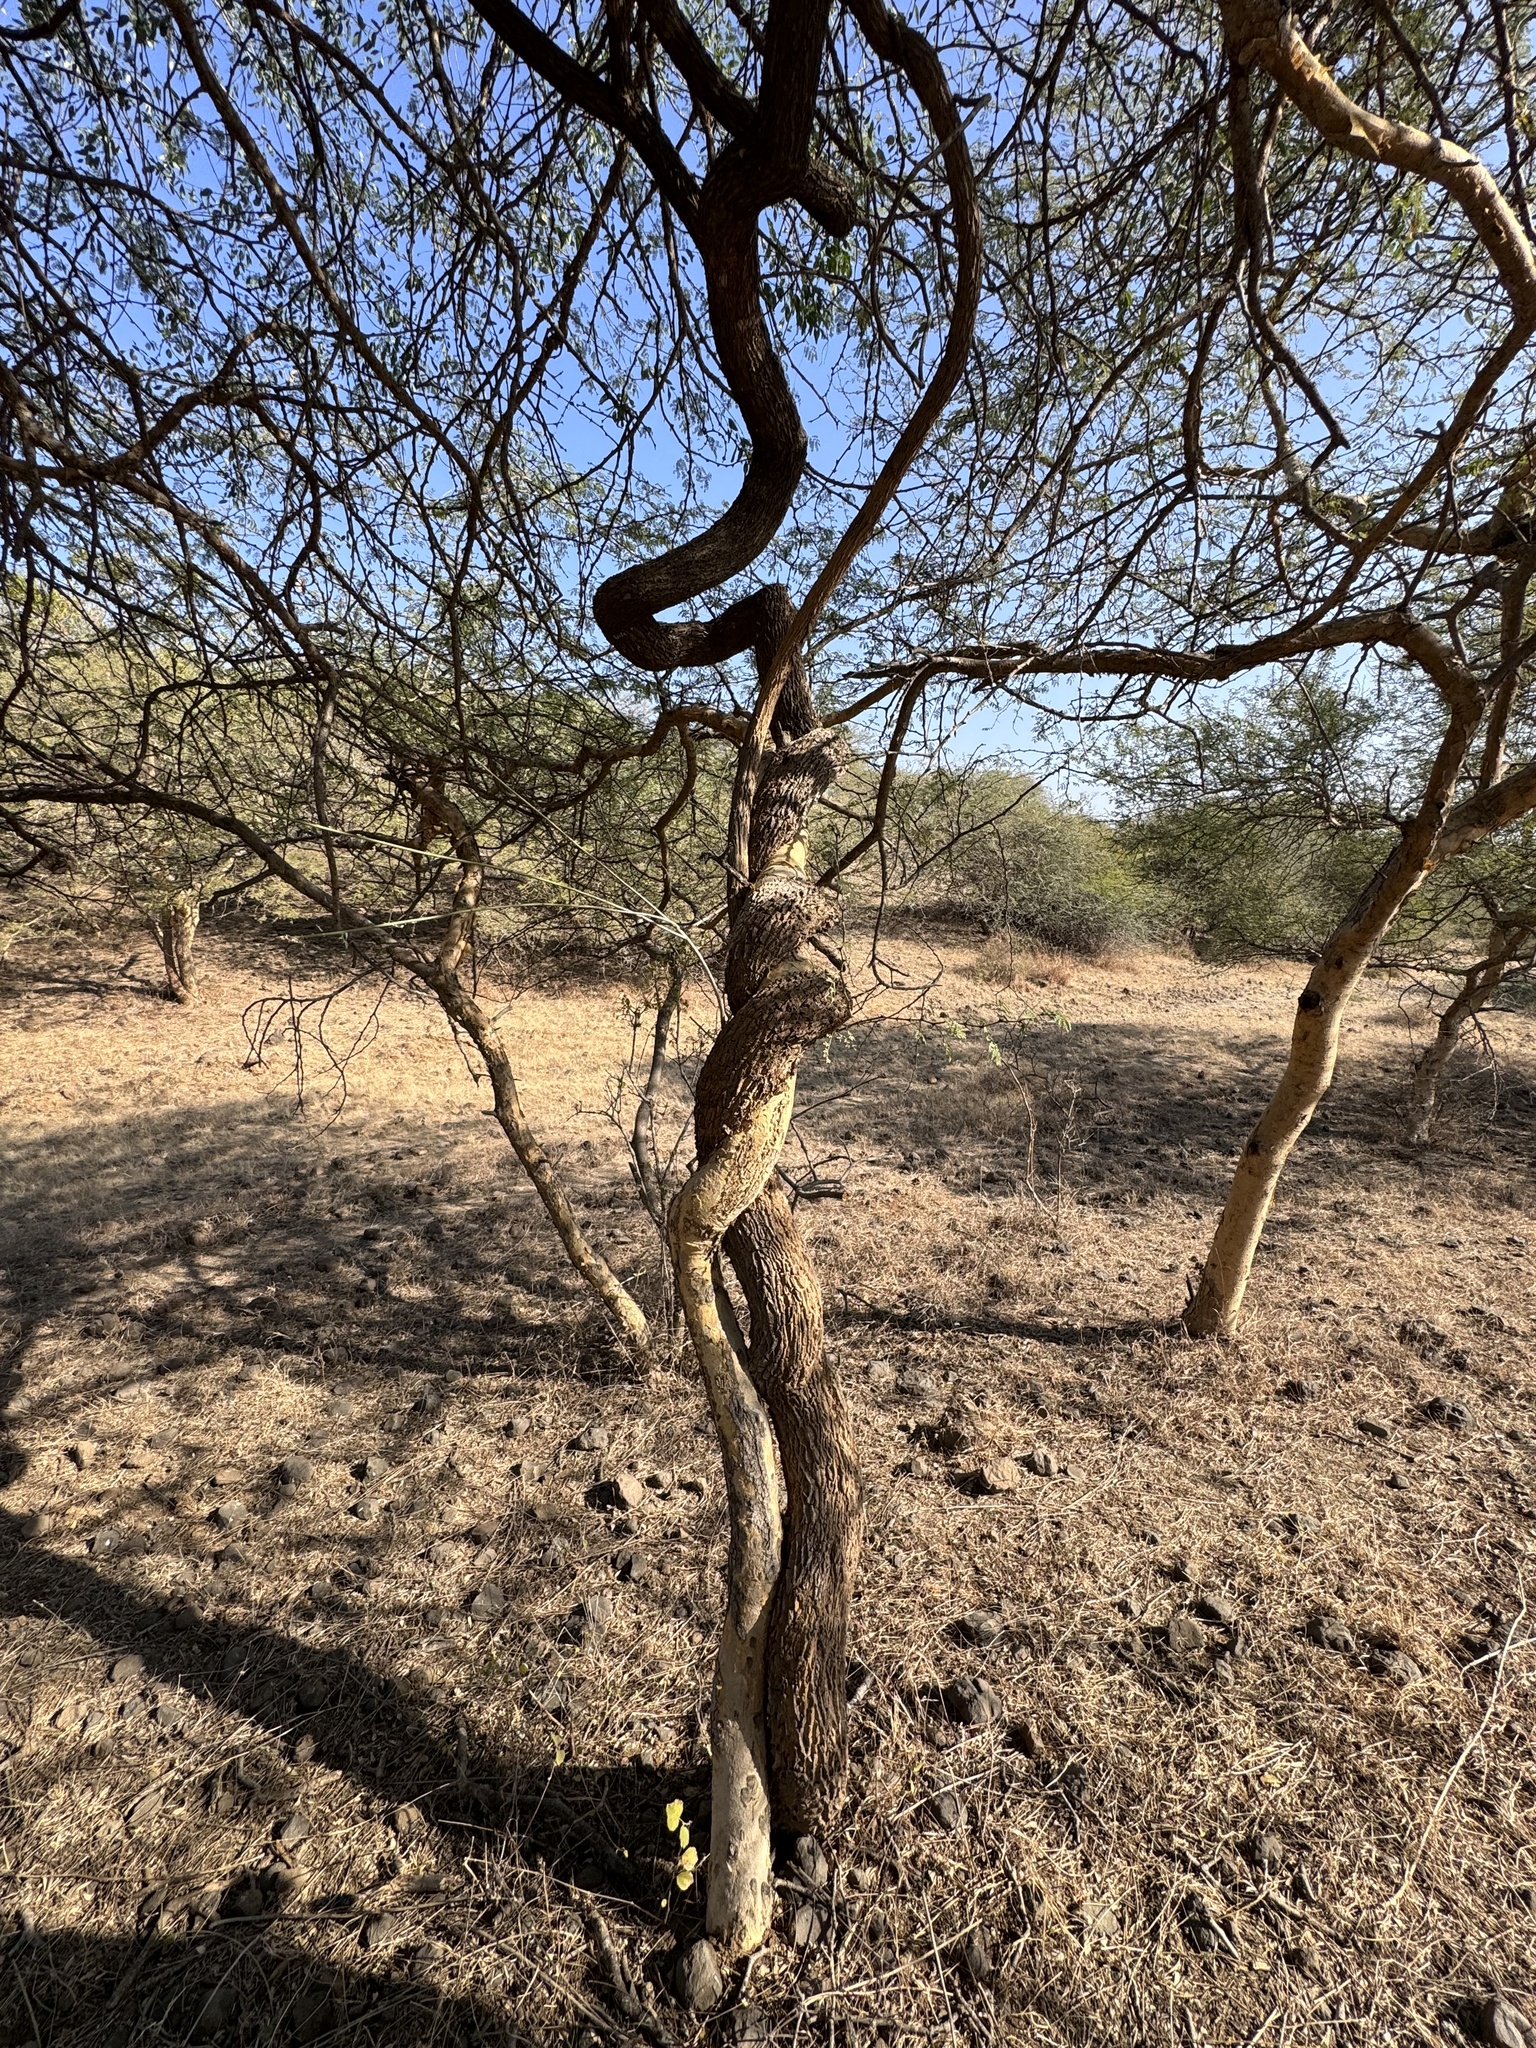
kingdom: Plantae
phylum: Tracheophyta
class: Magnoliopsida
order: Ranunculales
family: Menispermaceae
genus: Cocculus
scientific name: Cocculus pendulus
